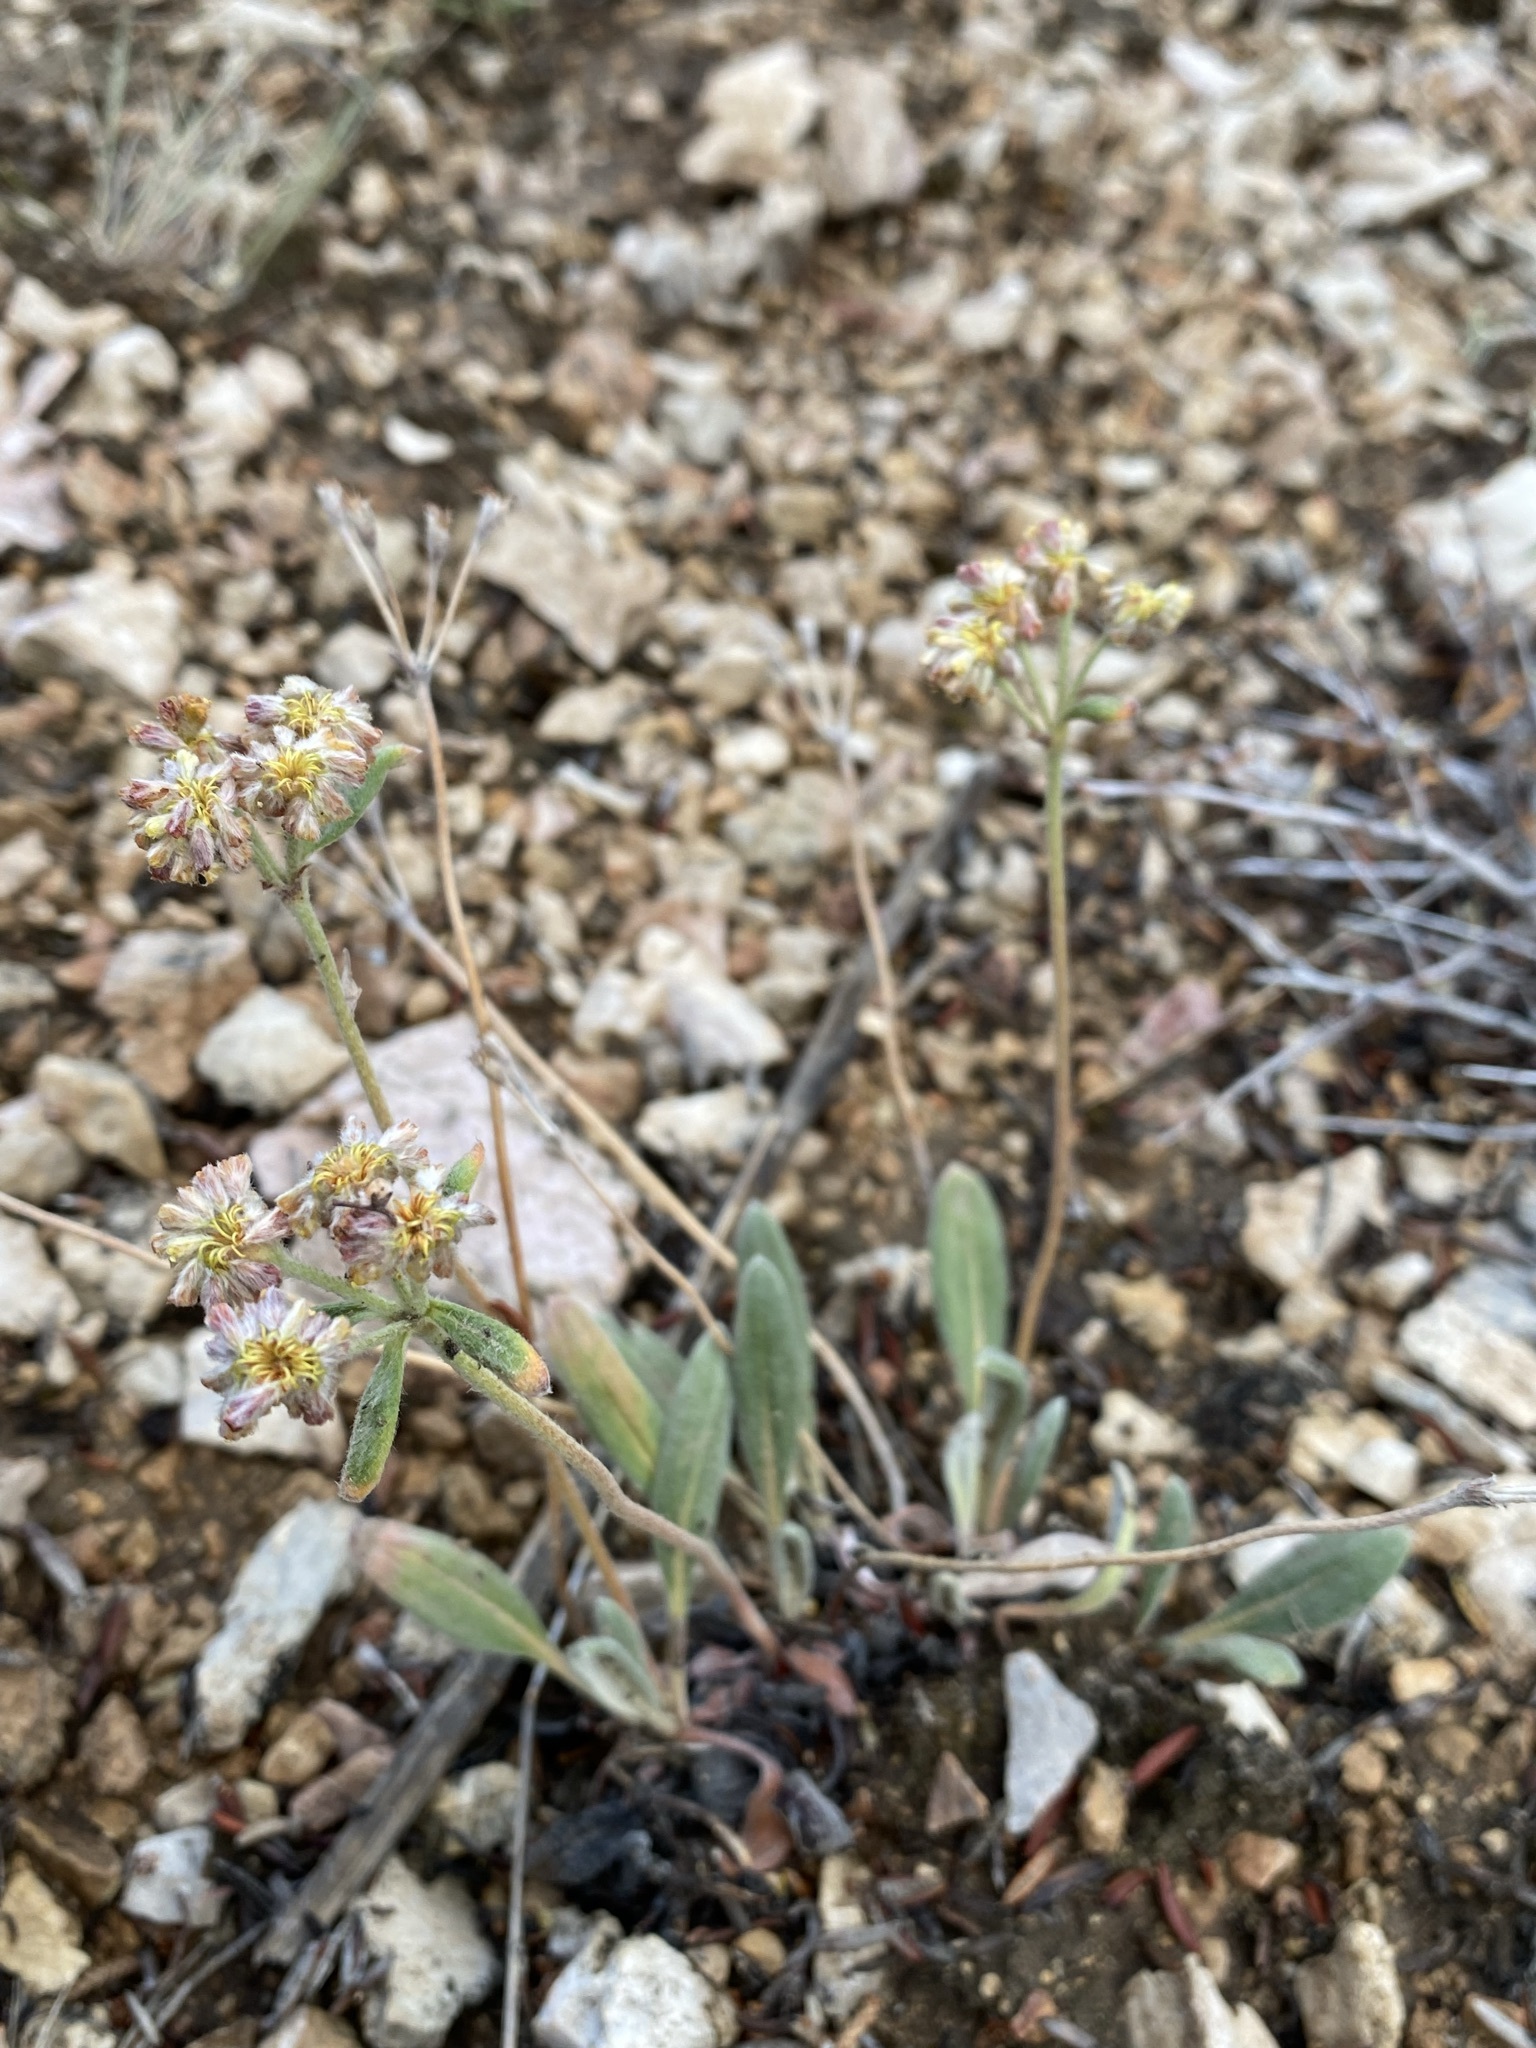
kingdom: Plantae
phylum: Tracheophyta
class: Magnoliopsida
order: Caryophyllales
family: Polygonaceae
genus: Eriogonum
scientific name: Eriogonum flavum
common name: Alpine golden wild buckwheat
